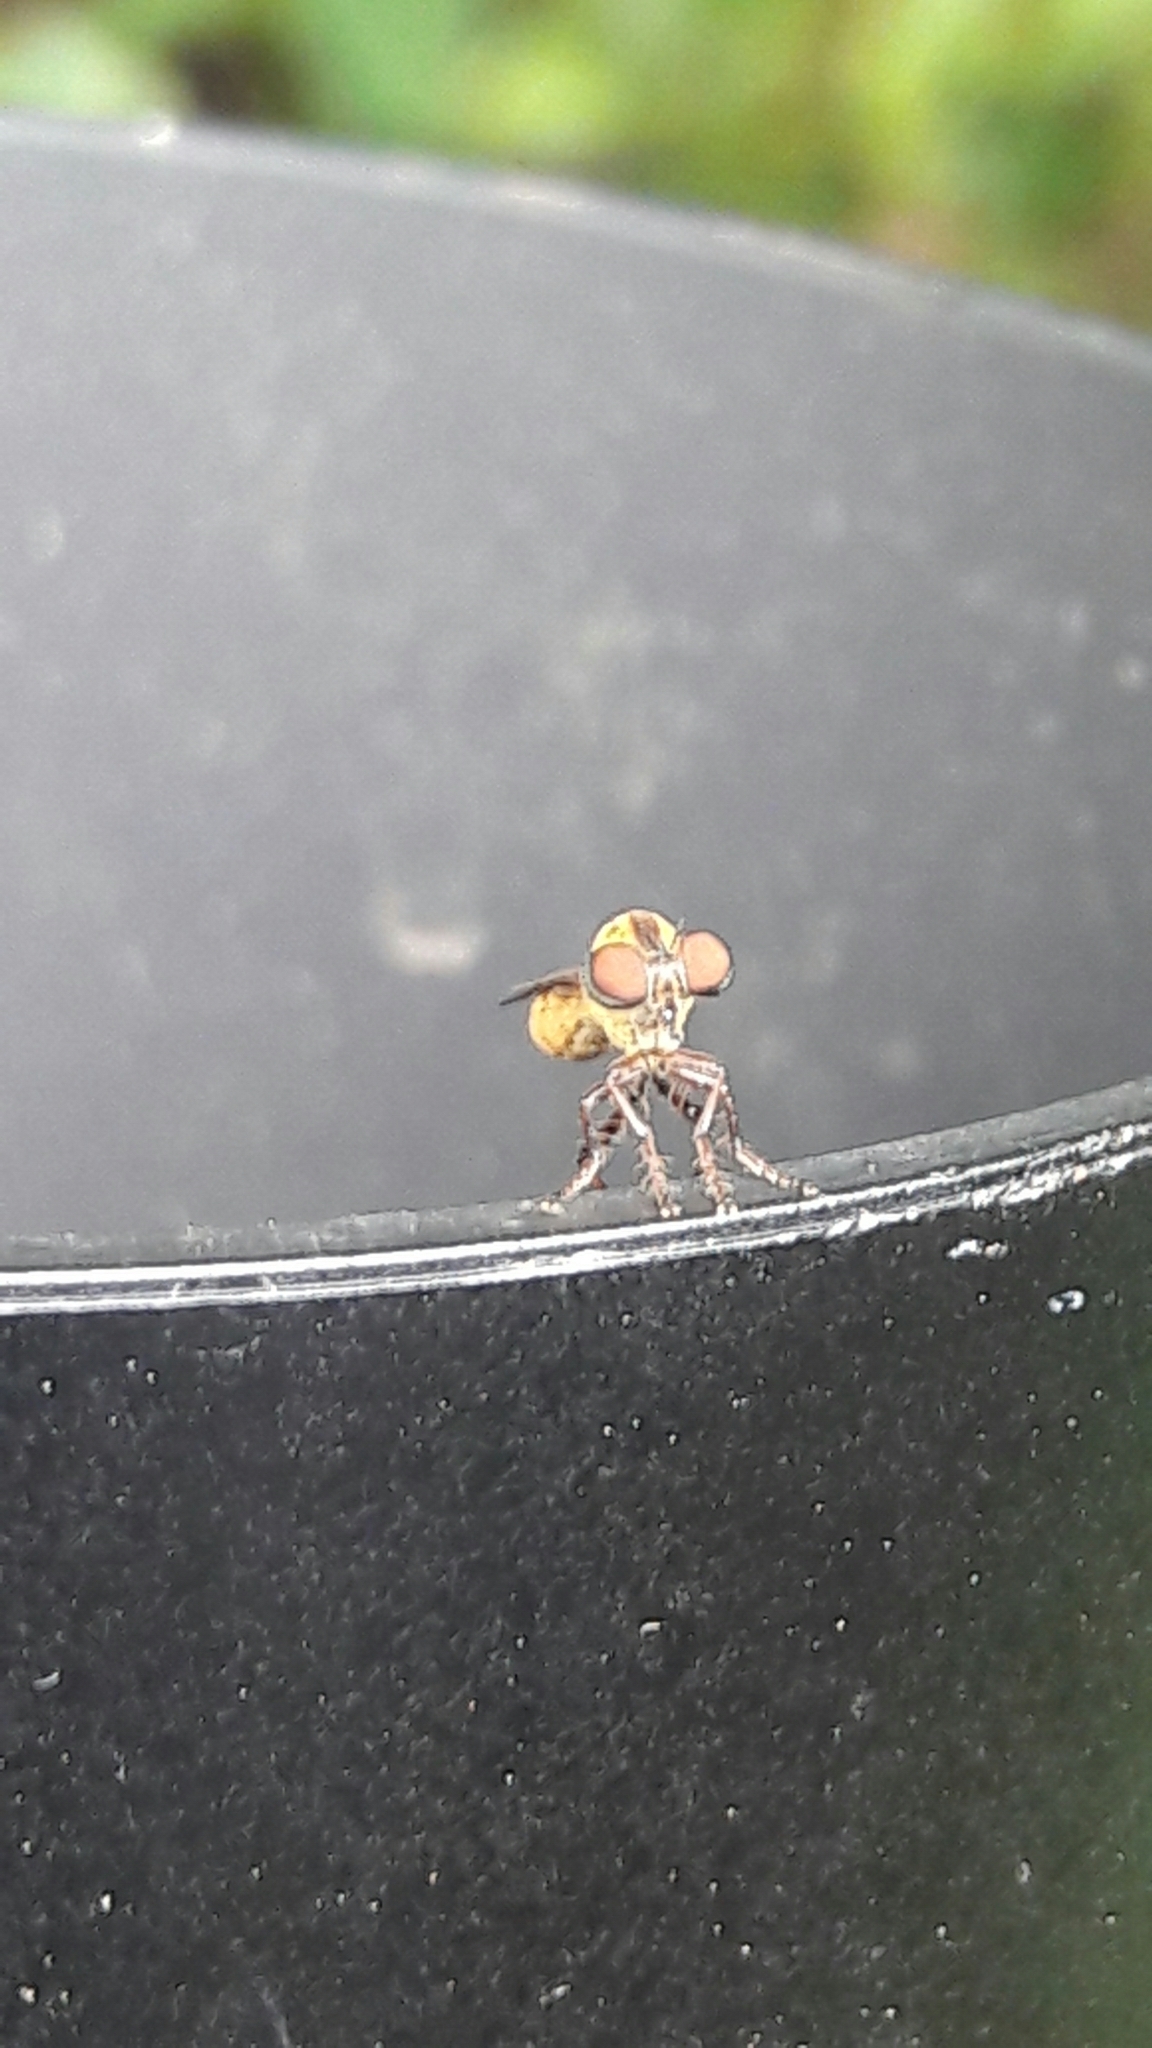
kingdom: Animalia
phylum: Arthropoda
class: Insecta
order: Diptera
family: Asilidae
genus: Holcocephala
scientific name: Holcocephala
